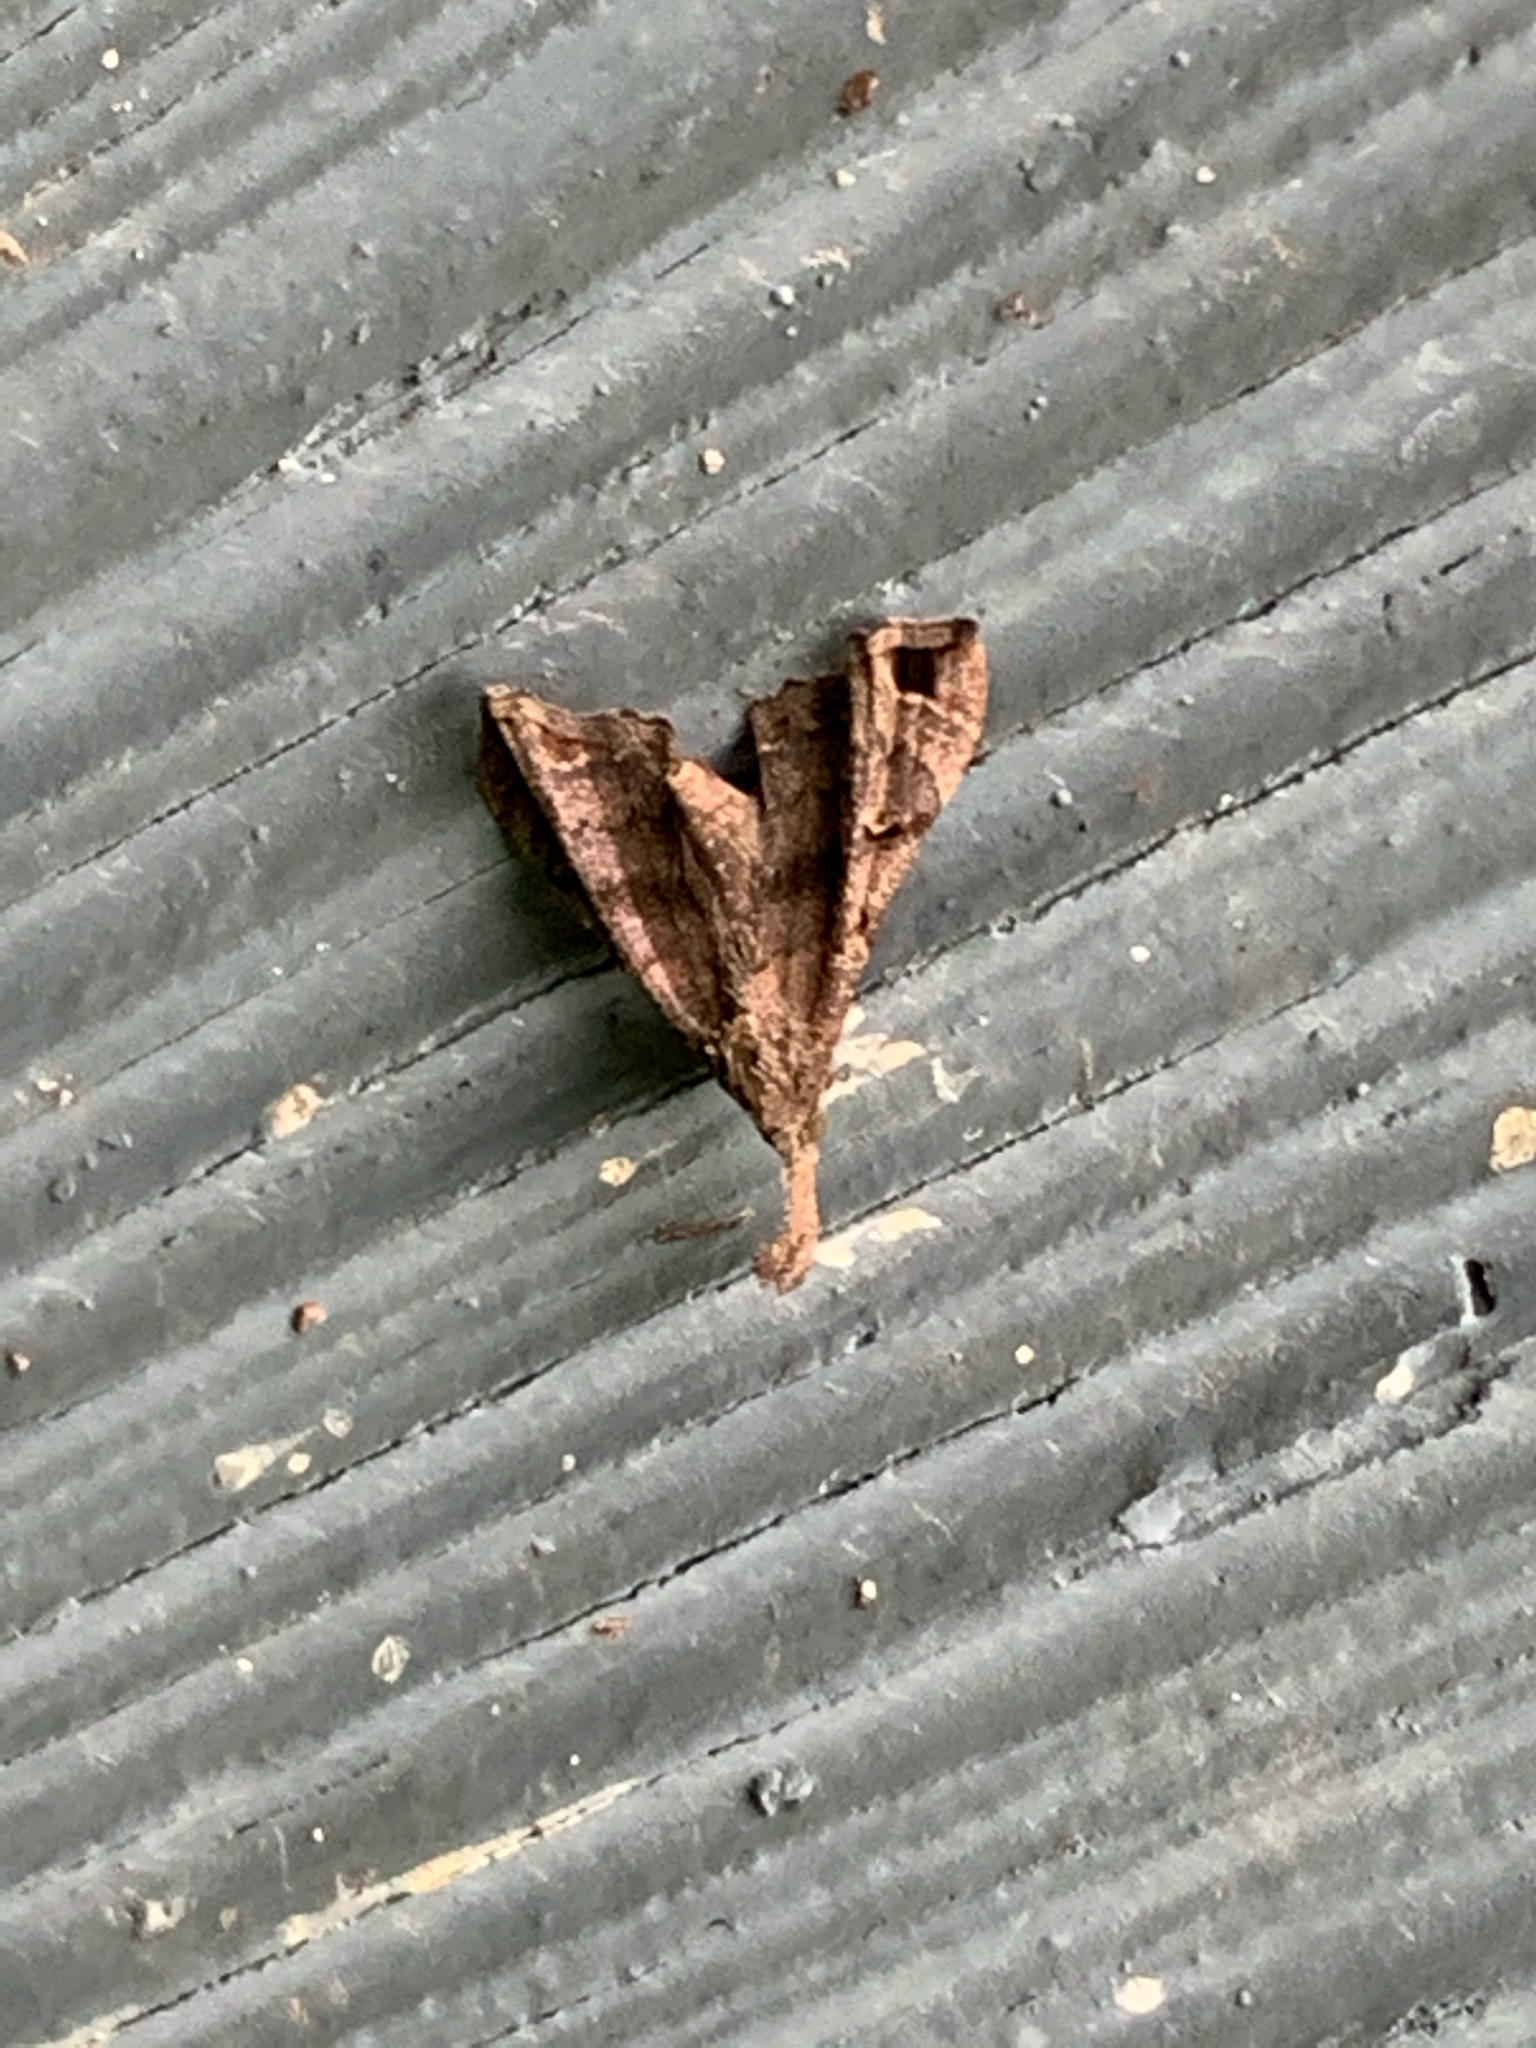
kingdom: Animalia
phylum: Arthropoda
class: Insecta
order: Lepidoptera
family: Erebidae
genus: Palthis
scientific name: Palthis asopialis
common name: Faint-spotted palthis moth
